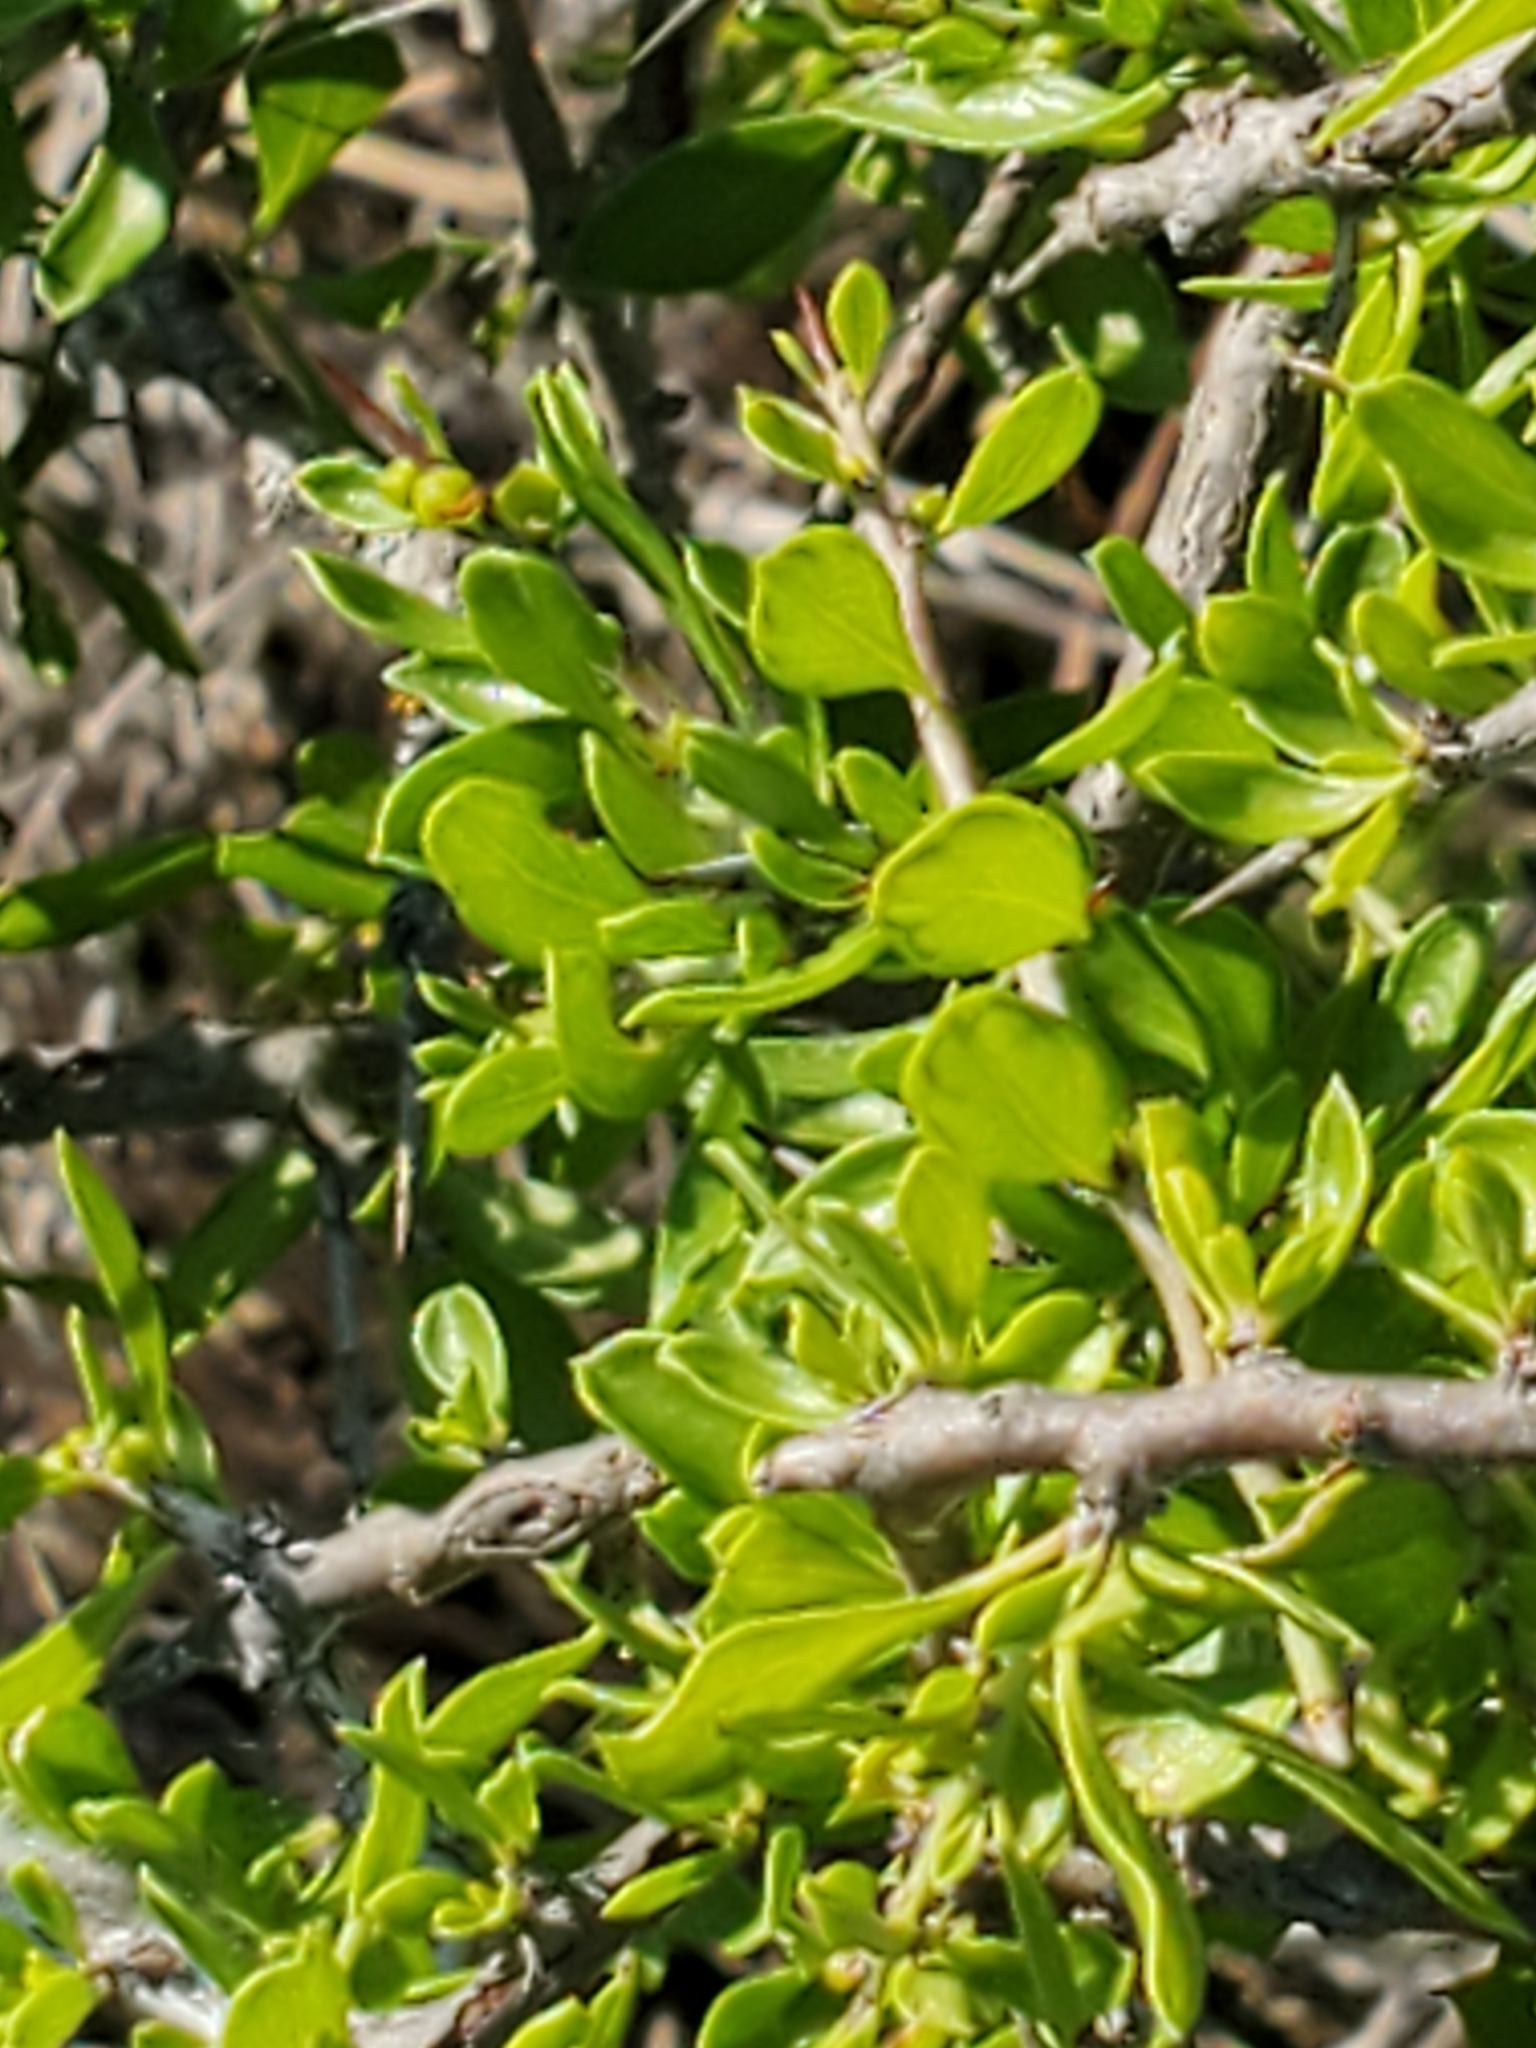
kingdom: Plantae
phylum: Tracheophyta
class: Magnoliopsida
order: Rosales
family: Rhamnaceae
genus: Condalia
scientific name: Condalia viridis
